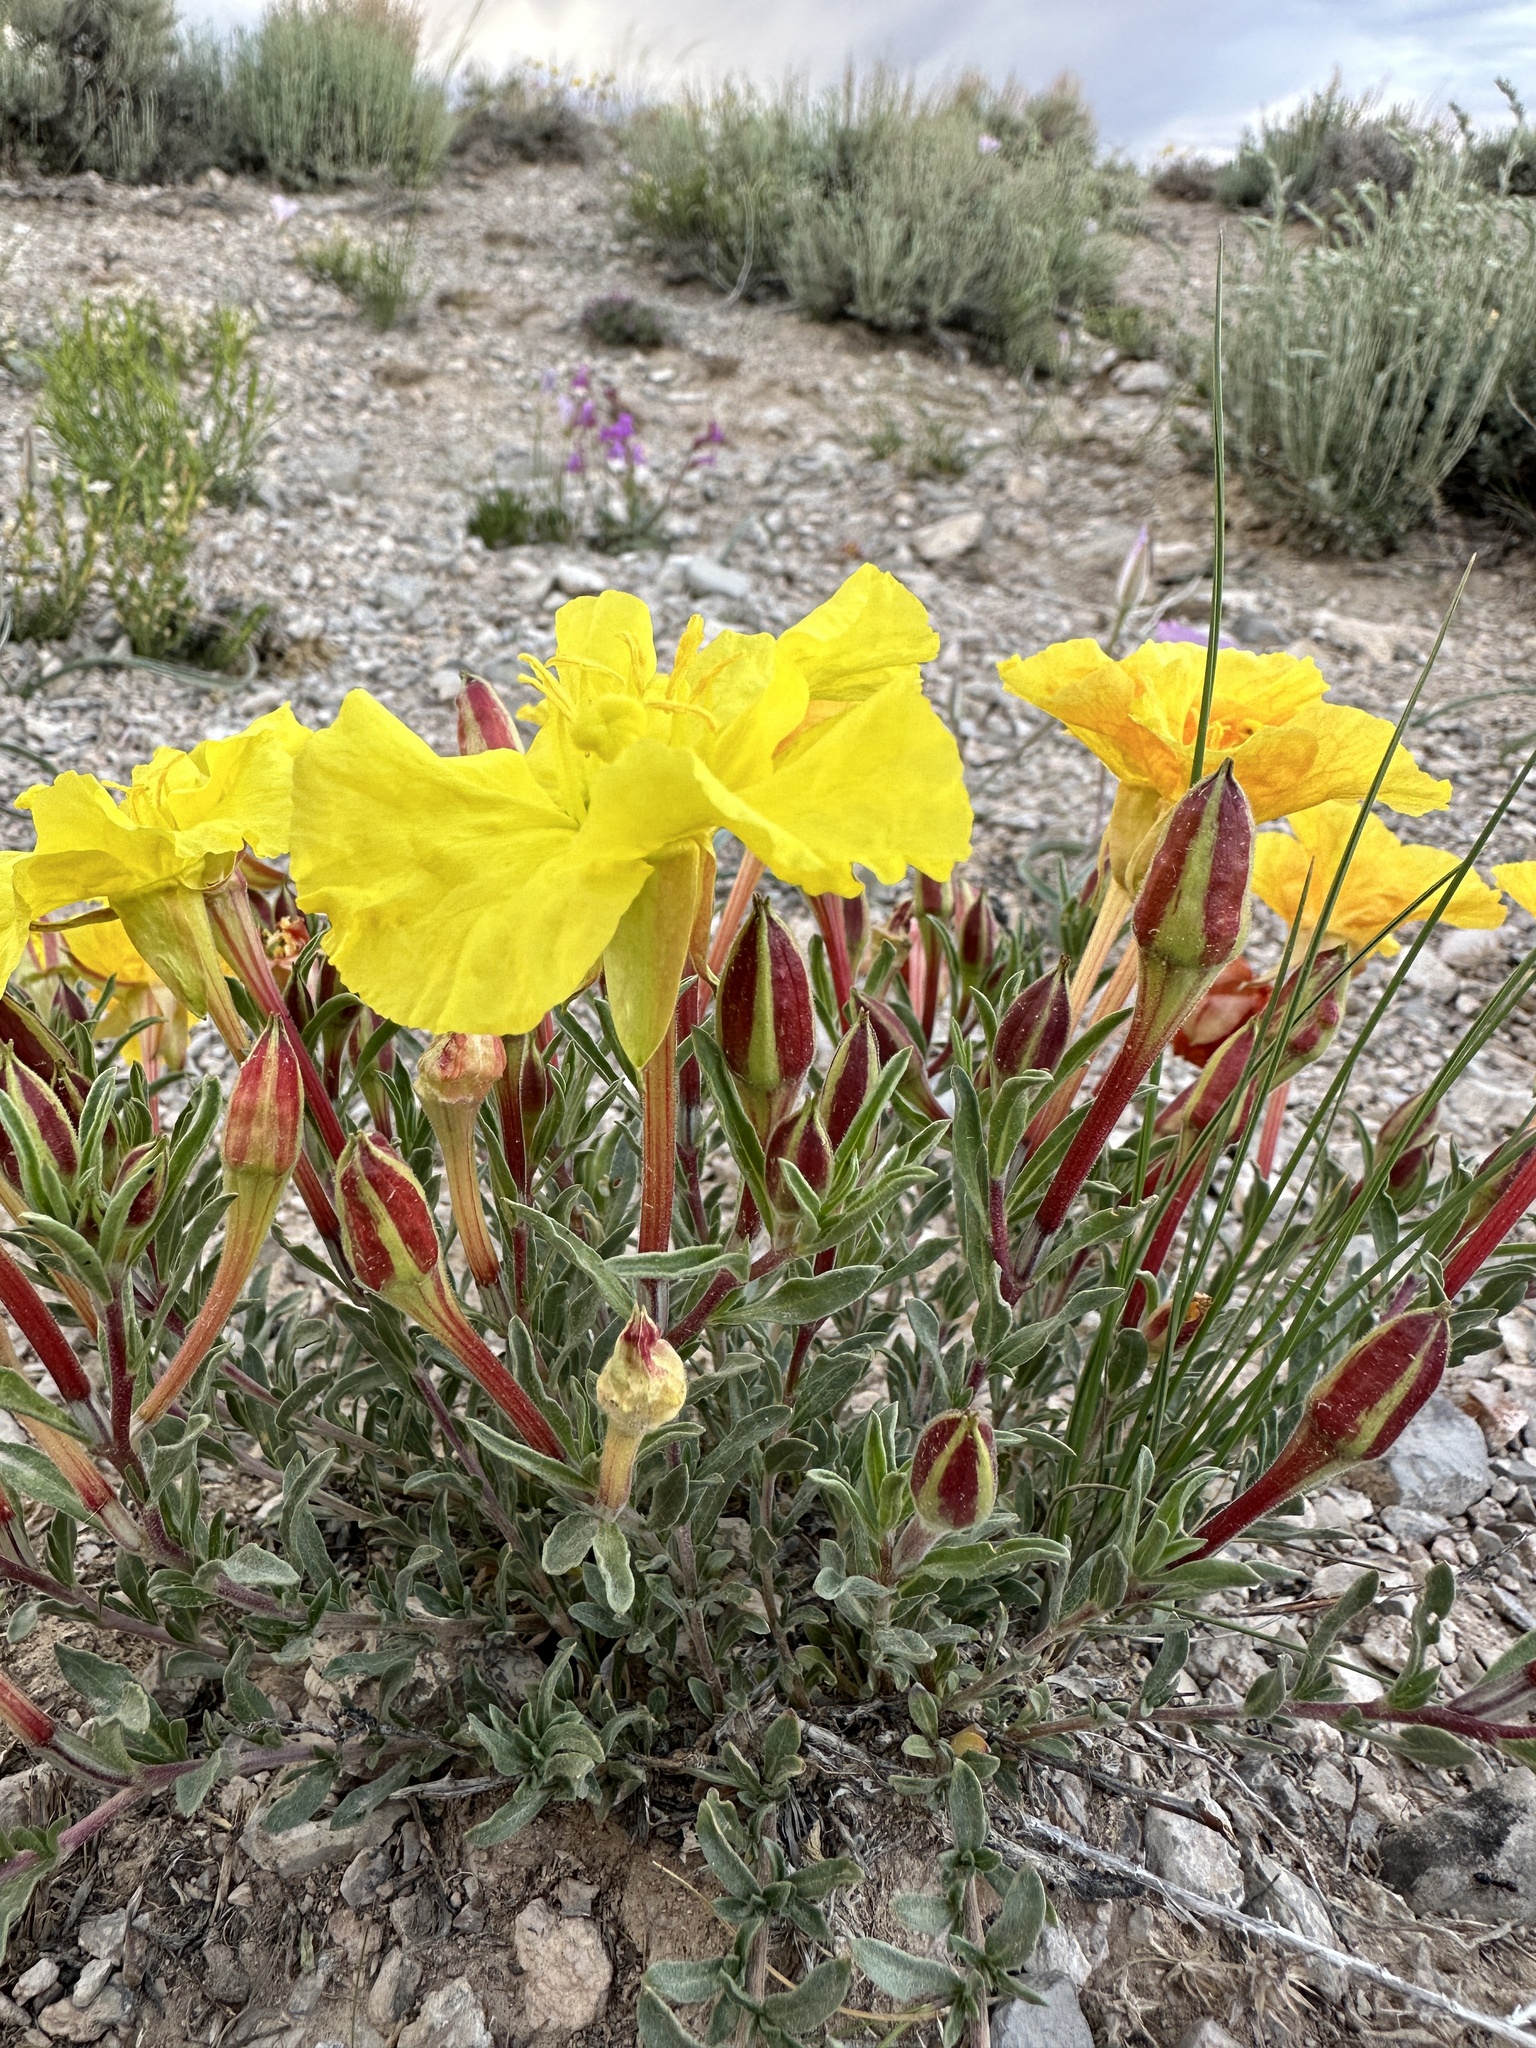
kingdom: Plantae
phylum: Tracheophyta
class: Magnoliopsida
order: Myrtales
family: Onagraceae
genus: Oenothera
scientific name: Oenothera lavandulifolia
